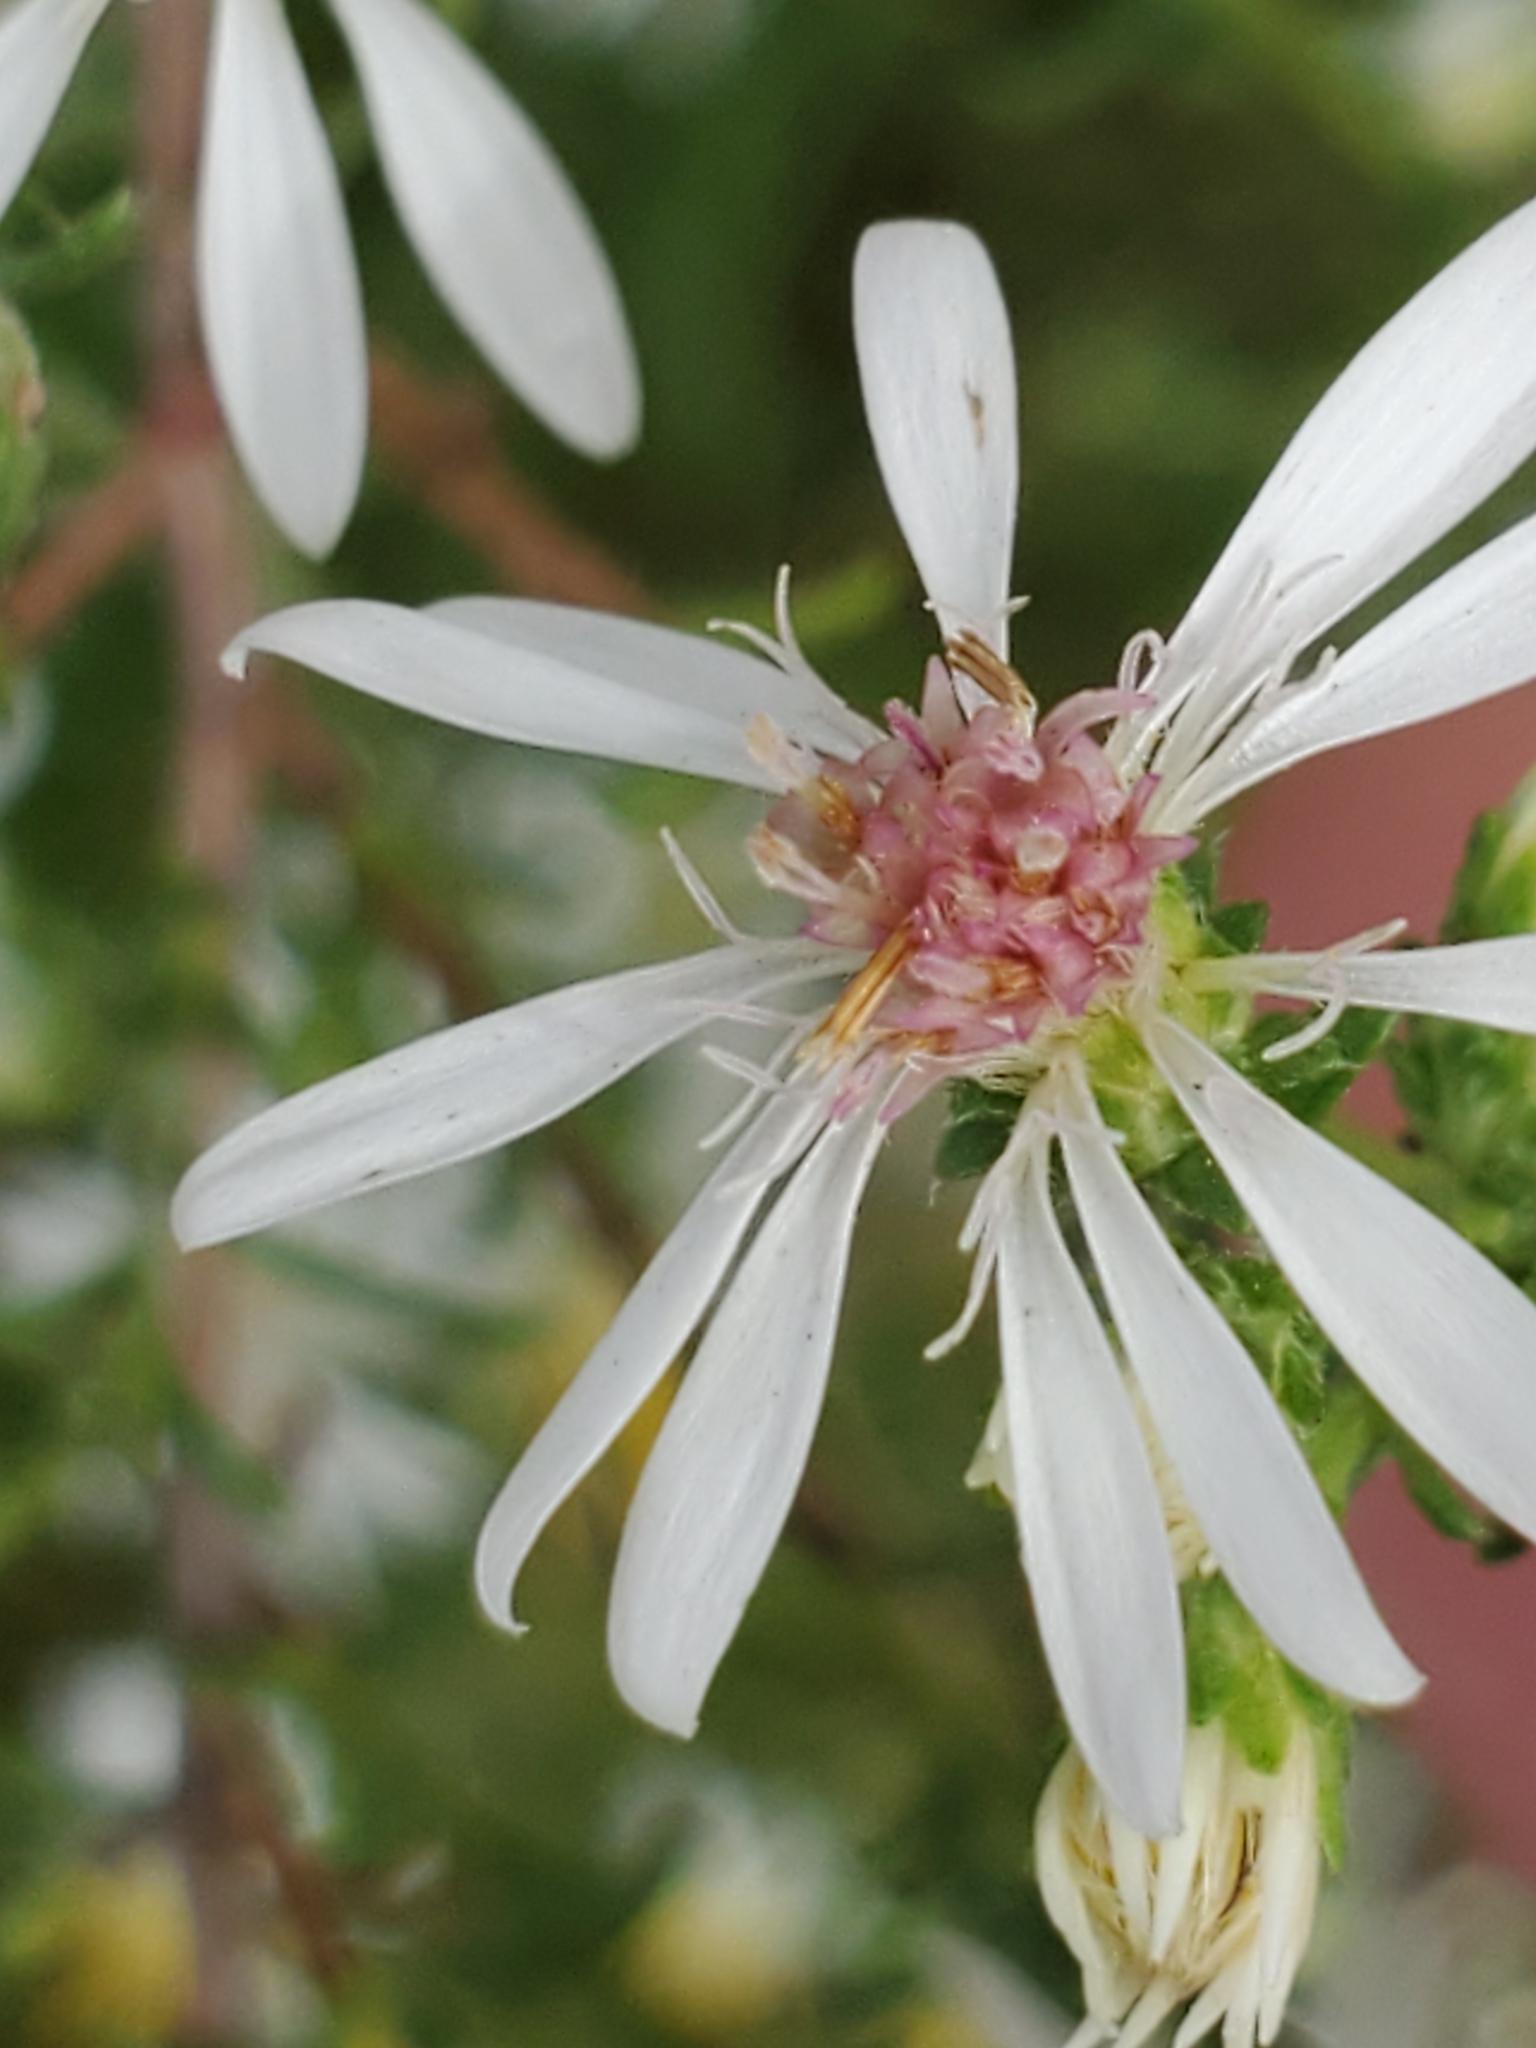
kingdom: Plantae
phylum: Tracheophyta
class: Magnoliopsida
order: Asterales
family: Asteraceae
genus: Symphyotrichum
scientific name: Symphyotrichum ericoides
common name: Heath aster
